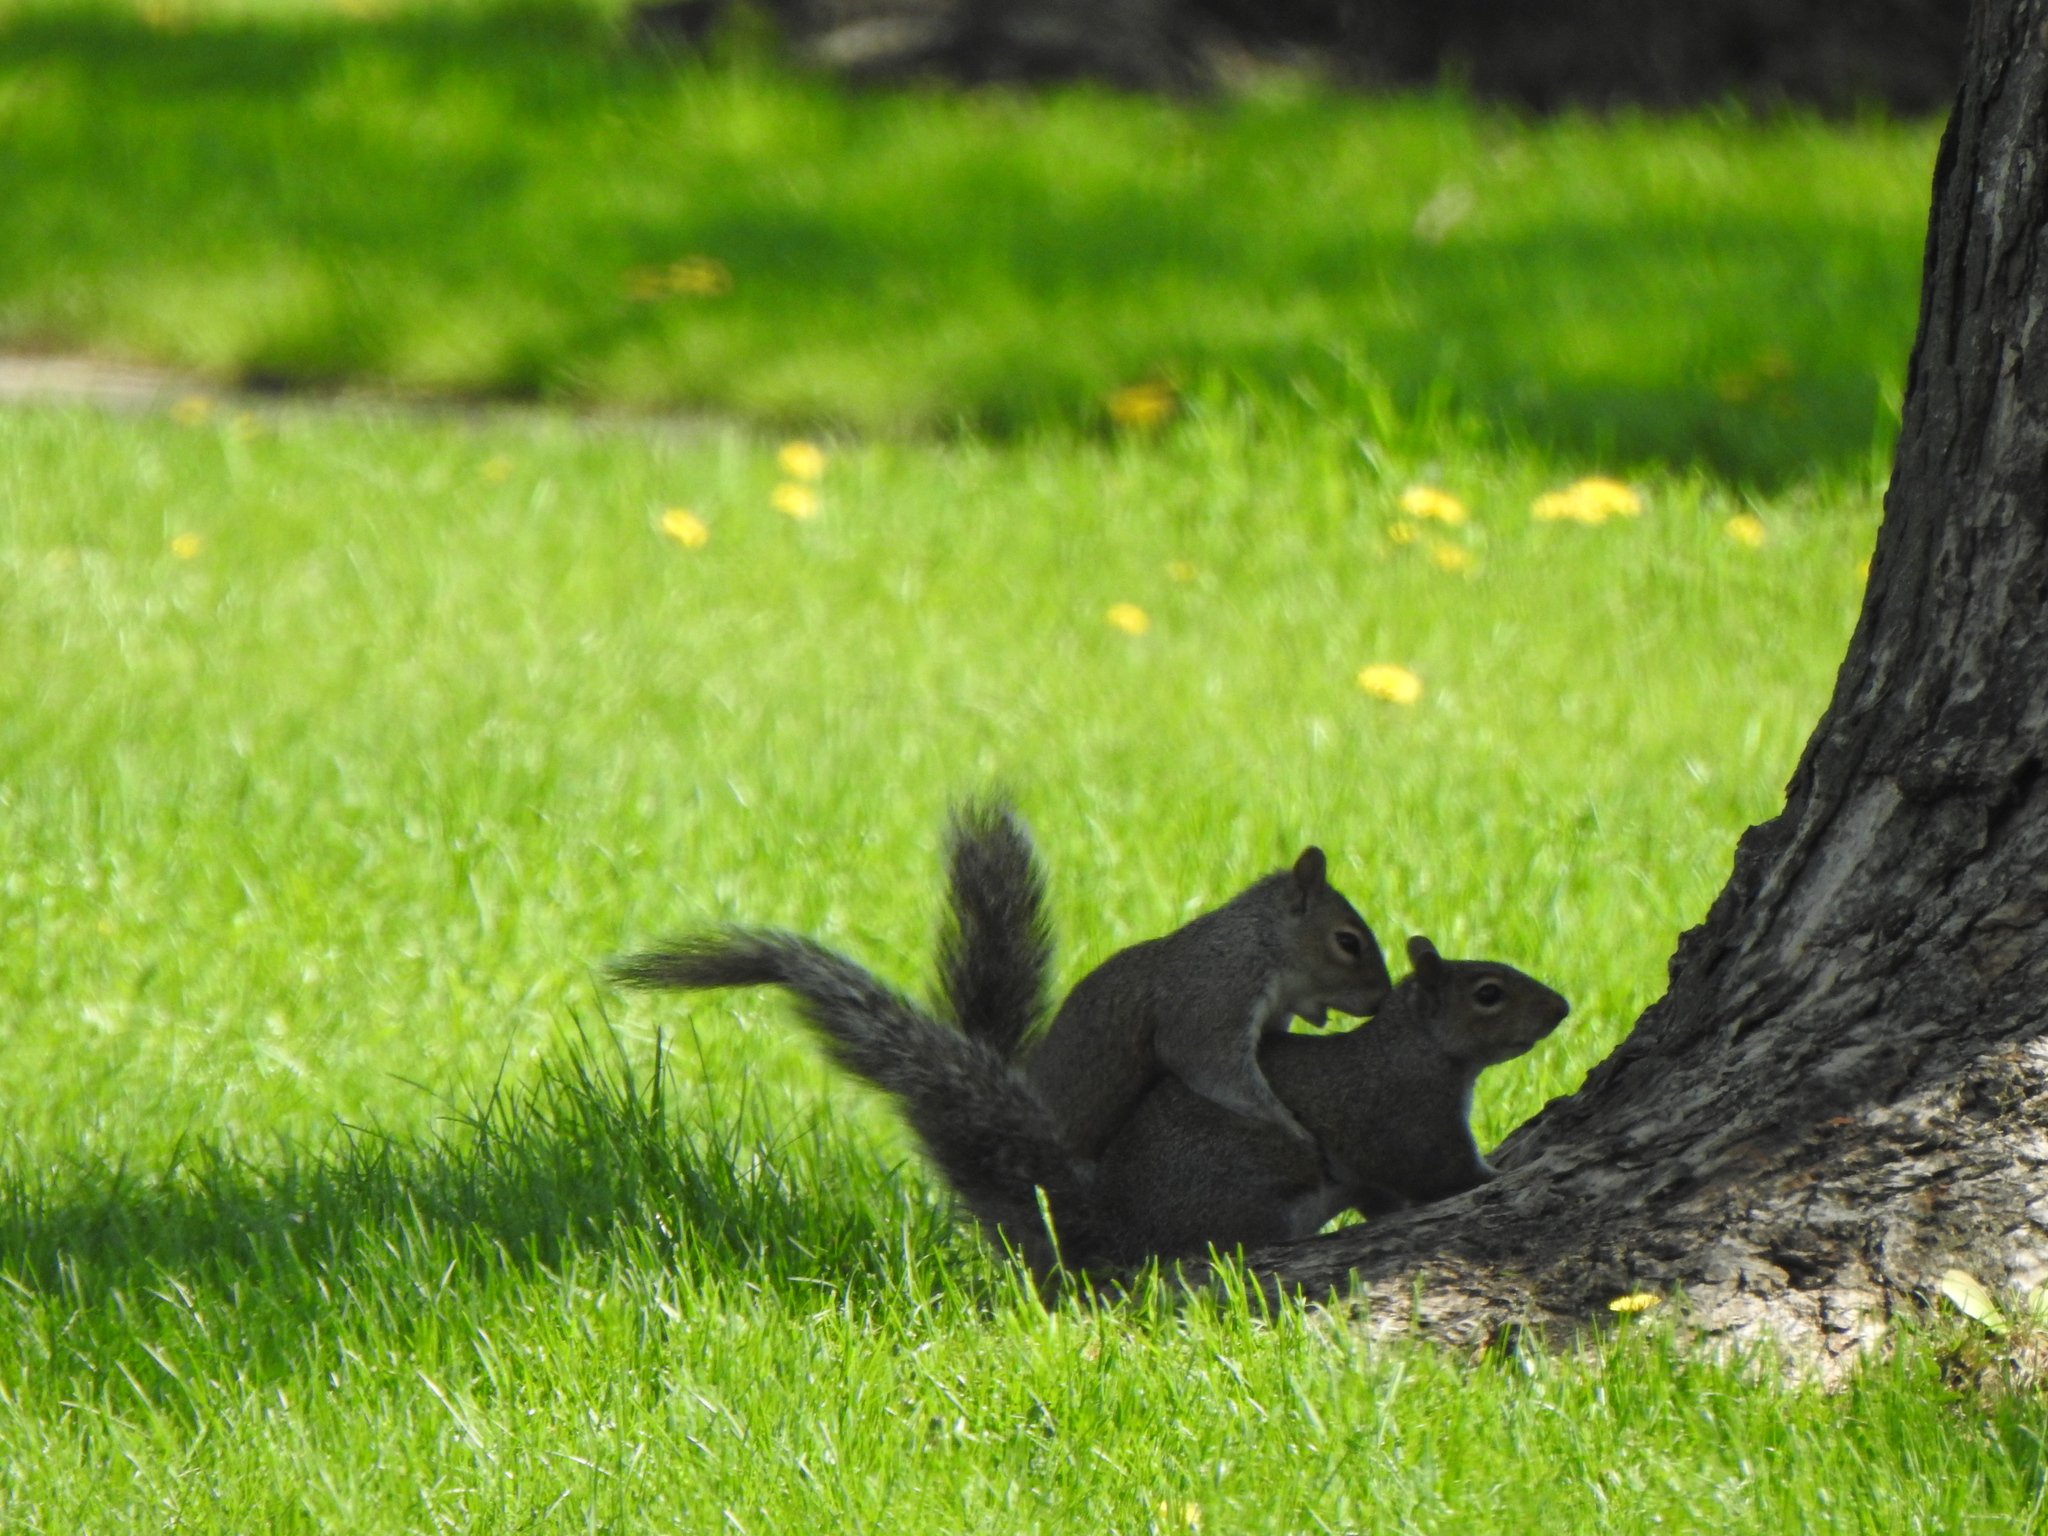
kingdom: Animalia
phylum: Chordata
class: Mammalia
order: Rodentia
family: Sciuridae
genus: Sciurus
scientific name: Sciurus carolinensis
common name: Eastern gray squirrel
